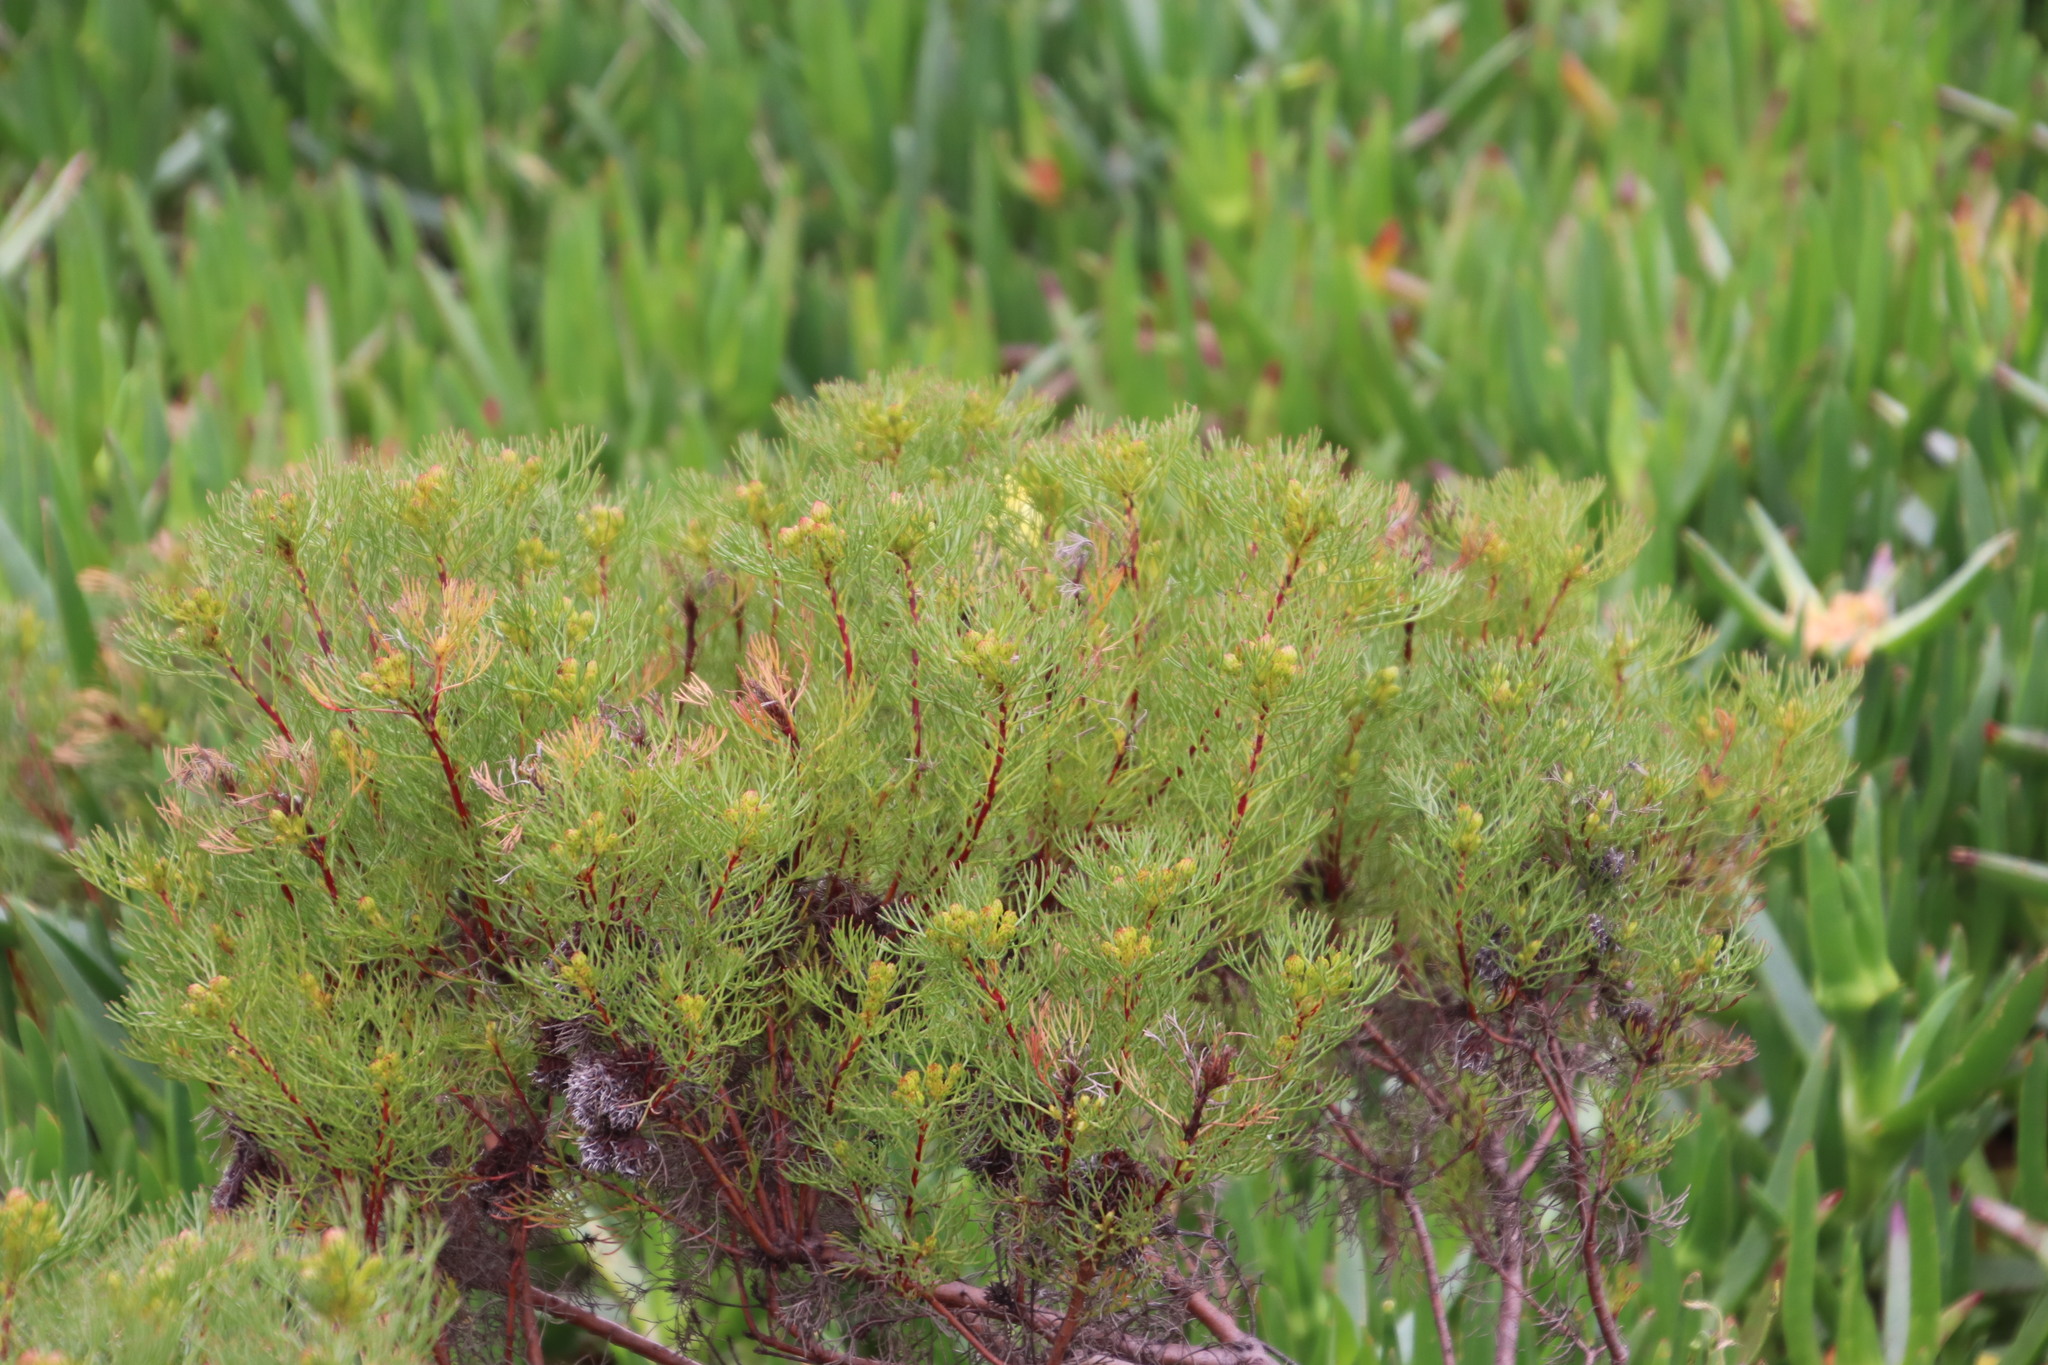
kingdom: Plantae
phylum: Tracheophyta
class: Magnoliopsida
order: Proteales
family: Proteaceae
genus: Serruria
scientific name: Serruria
